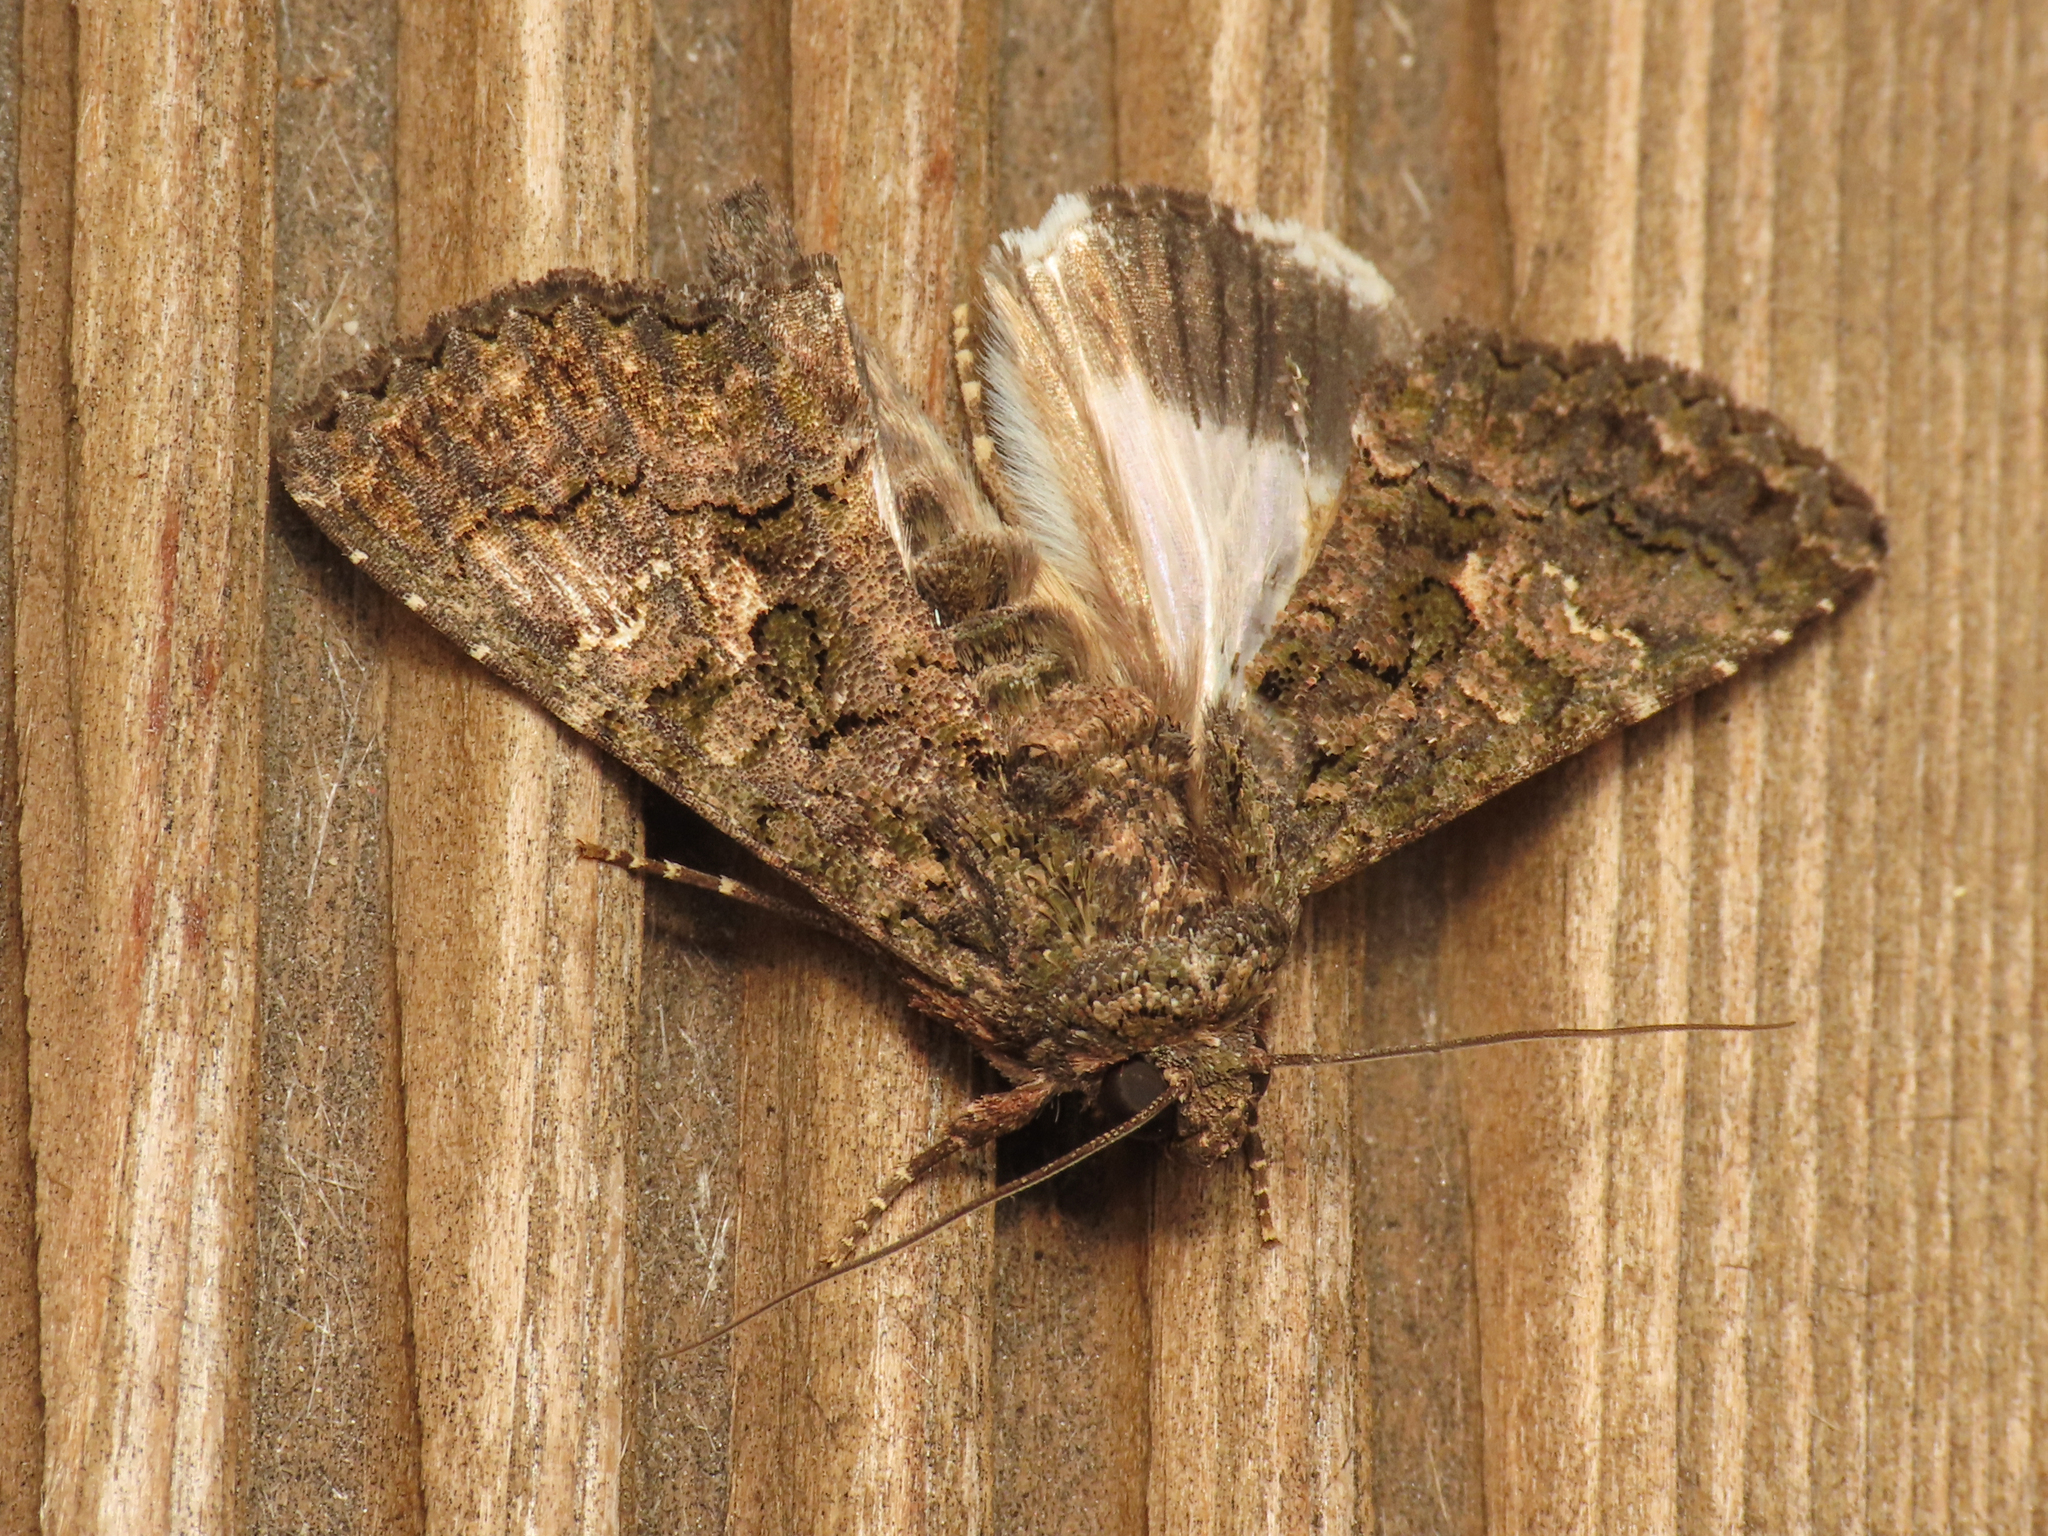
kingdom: Animalia
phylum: Arthropoda
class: Insecta
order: Lepidoptera
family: Noctuidae
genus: Aedia
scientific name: Aedia leucomelas
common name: Sorcerer
